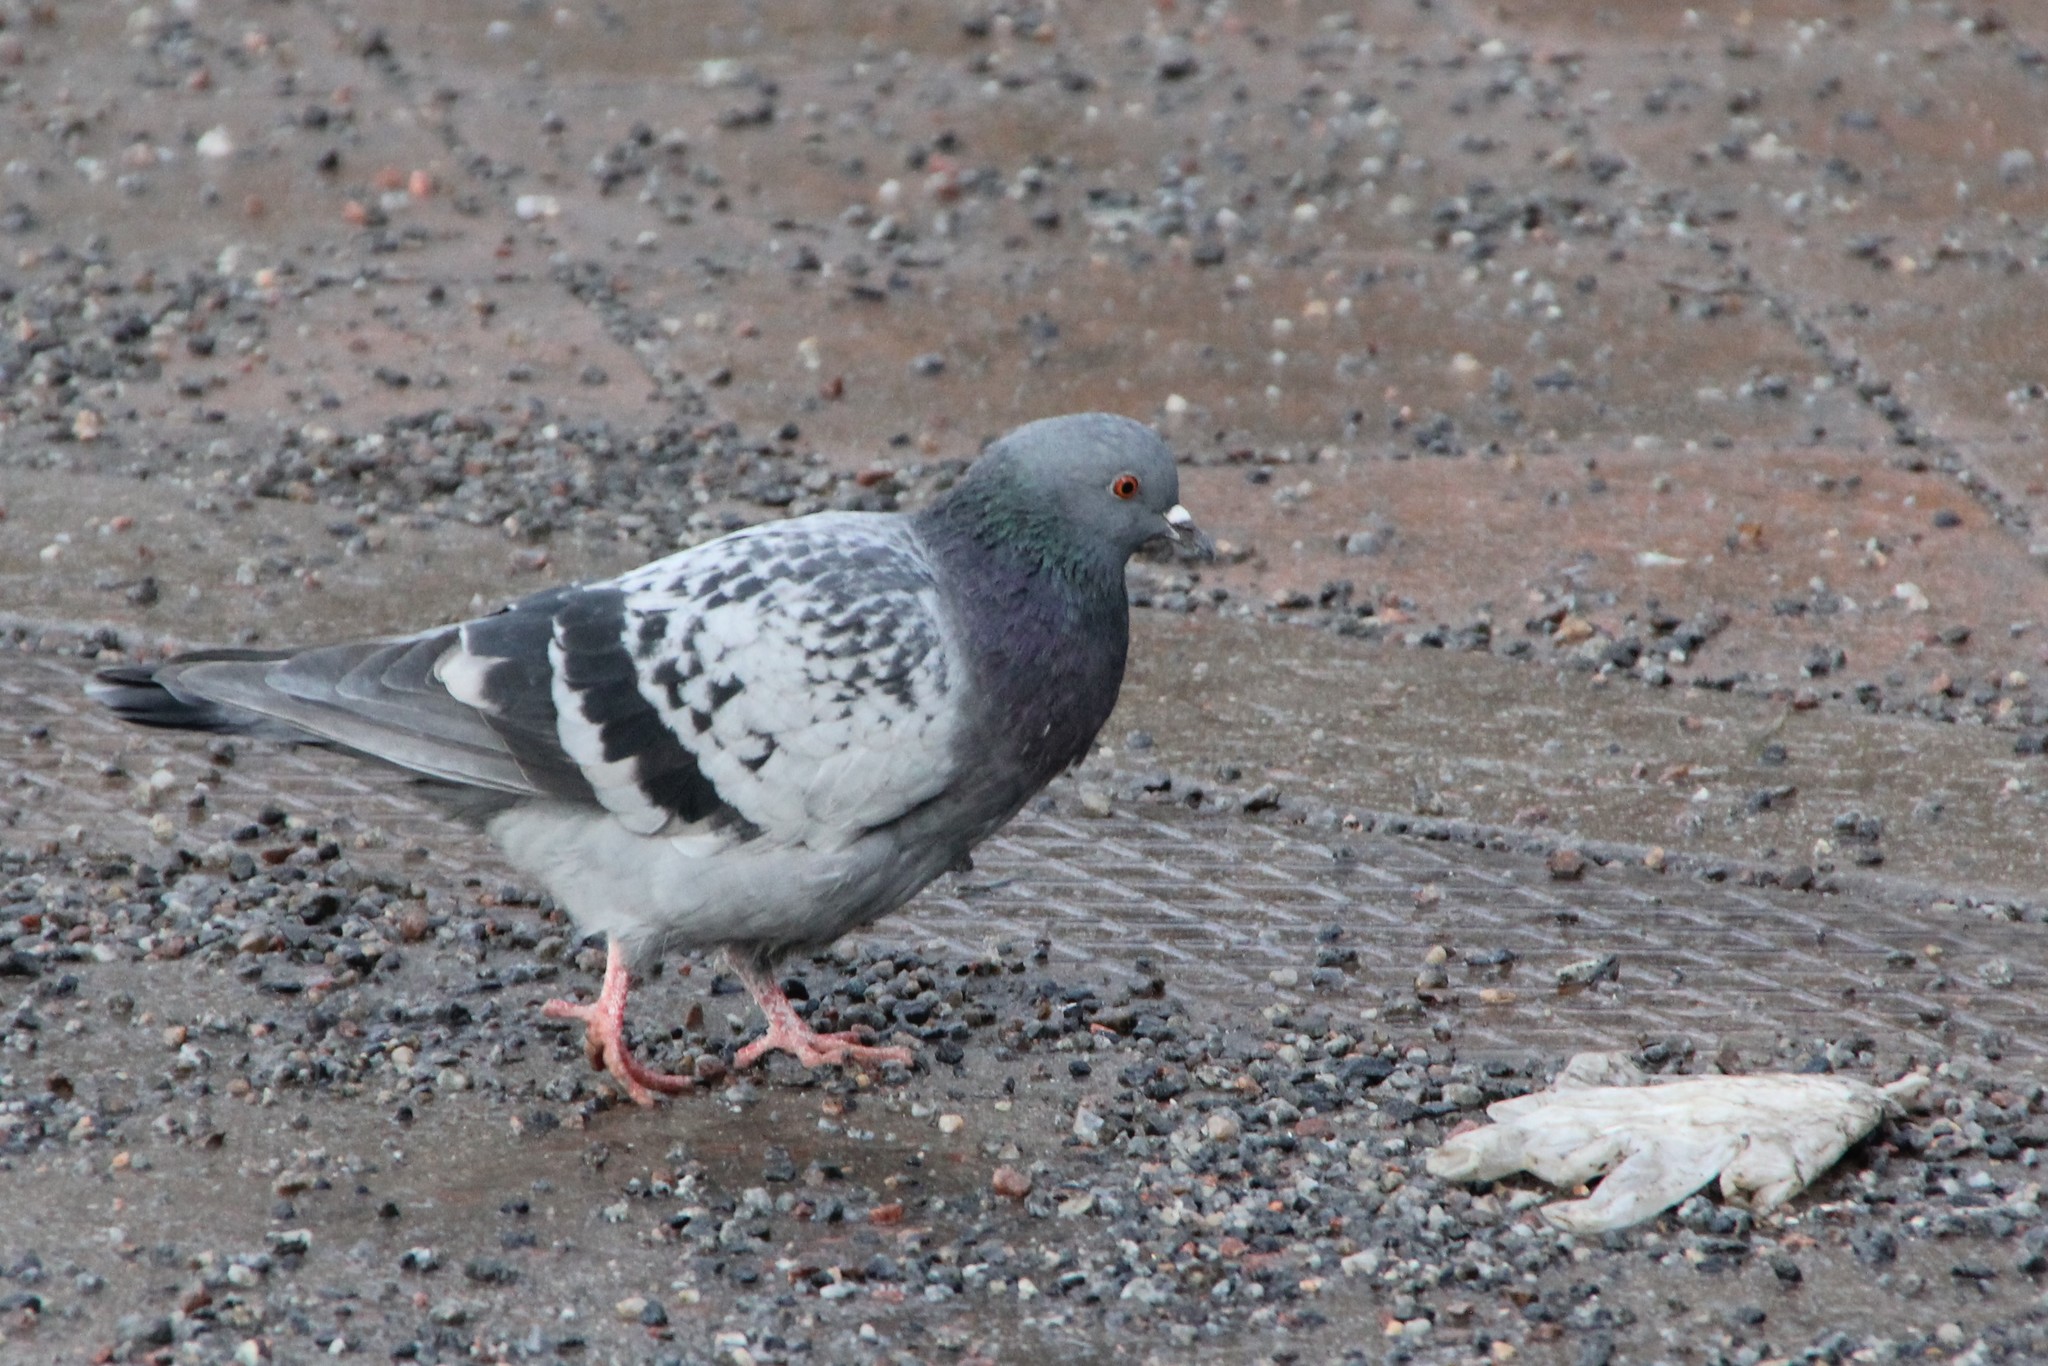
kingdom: Animalia
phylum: Chordata
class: Aves
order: Columbiformes
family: Columbidae
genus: Columba
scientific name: Columba livia
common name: Rock pigeon
